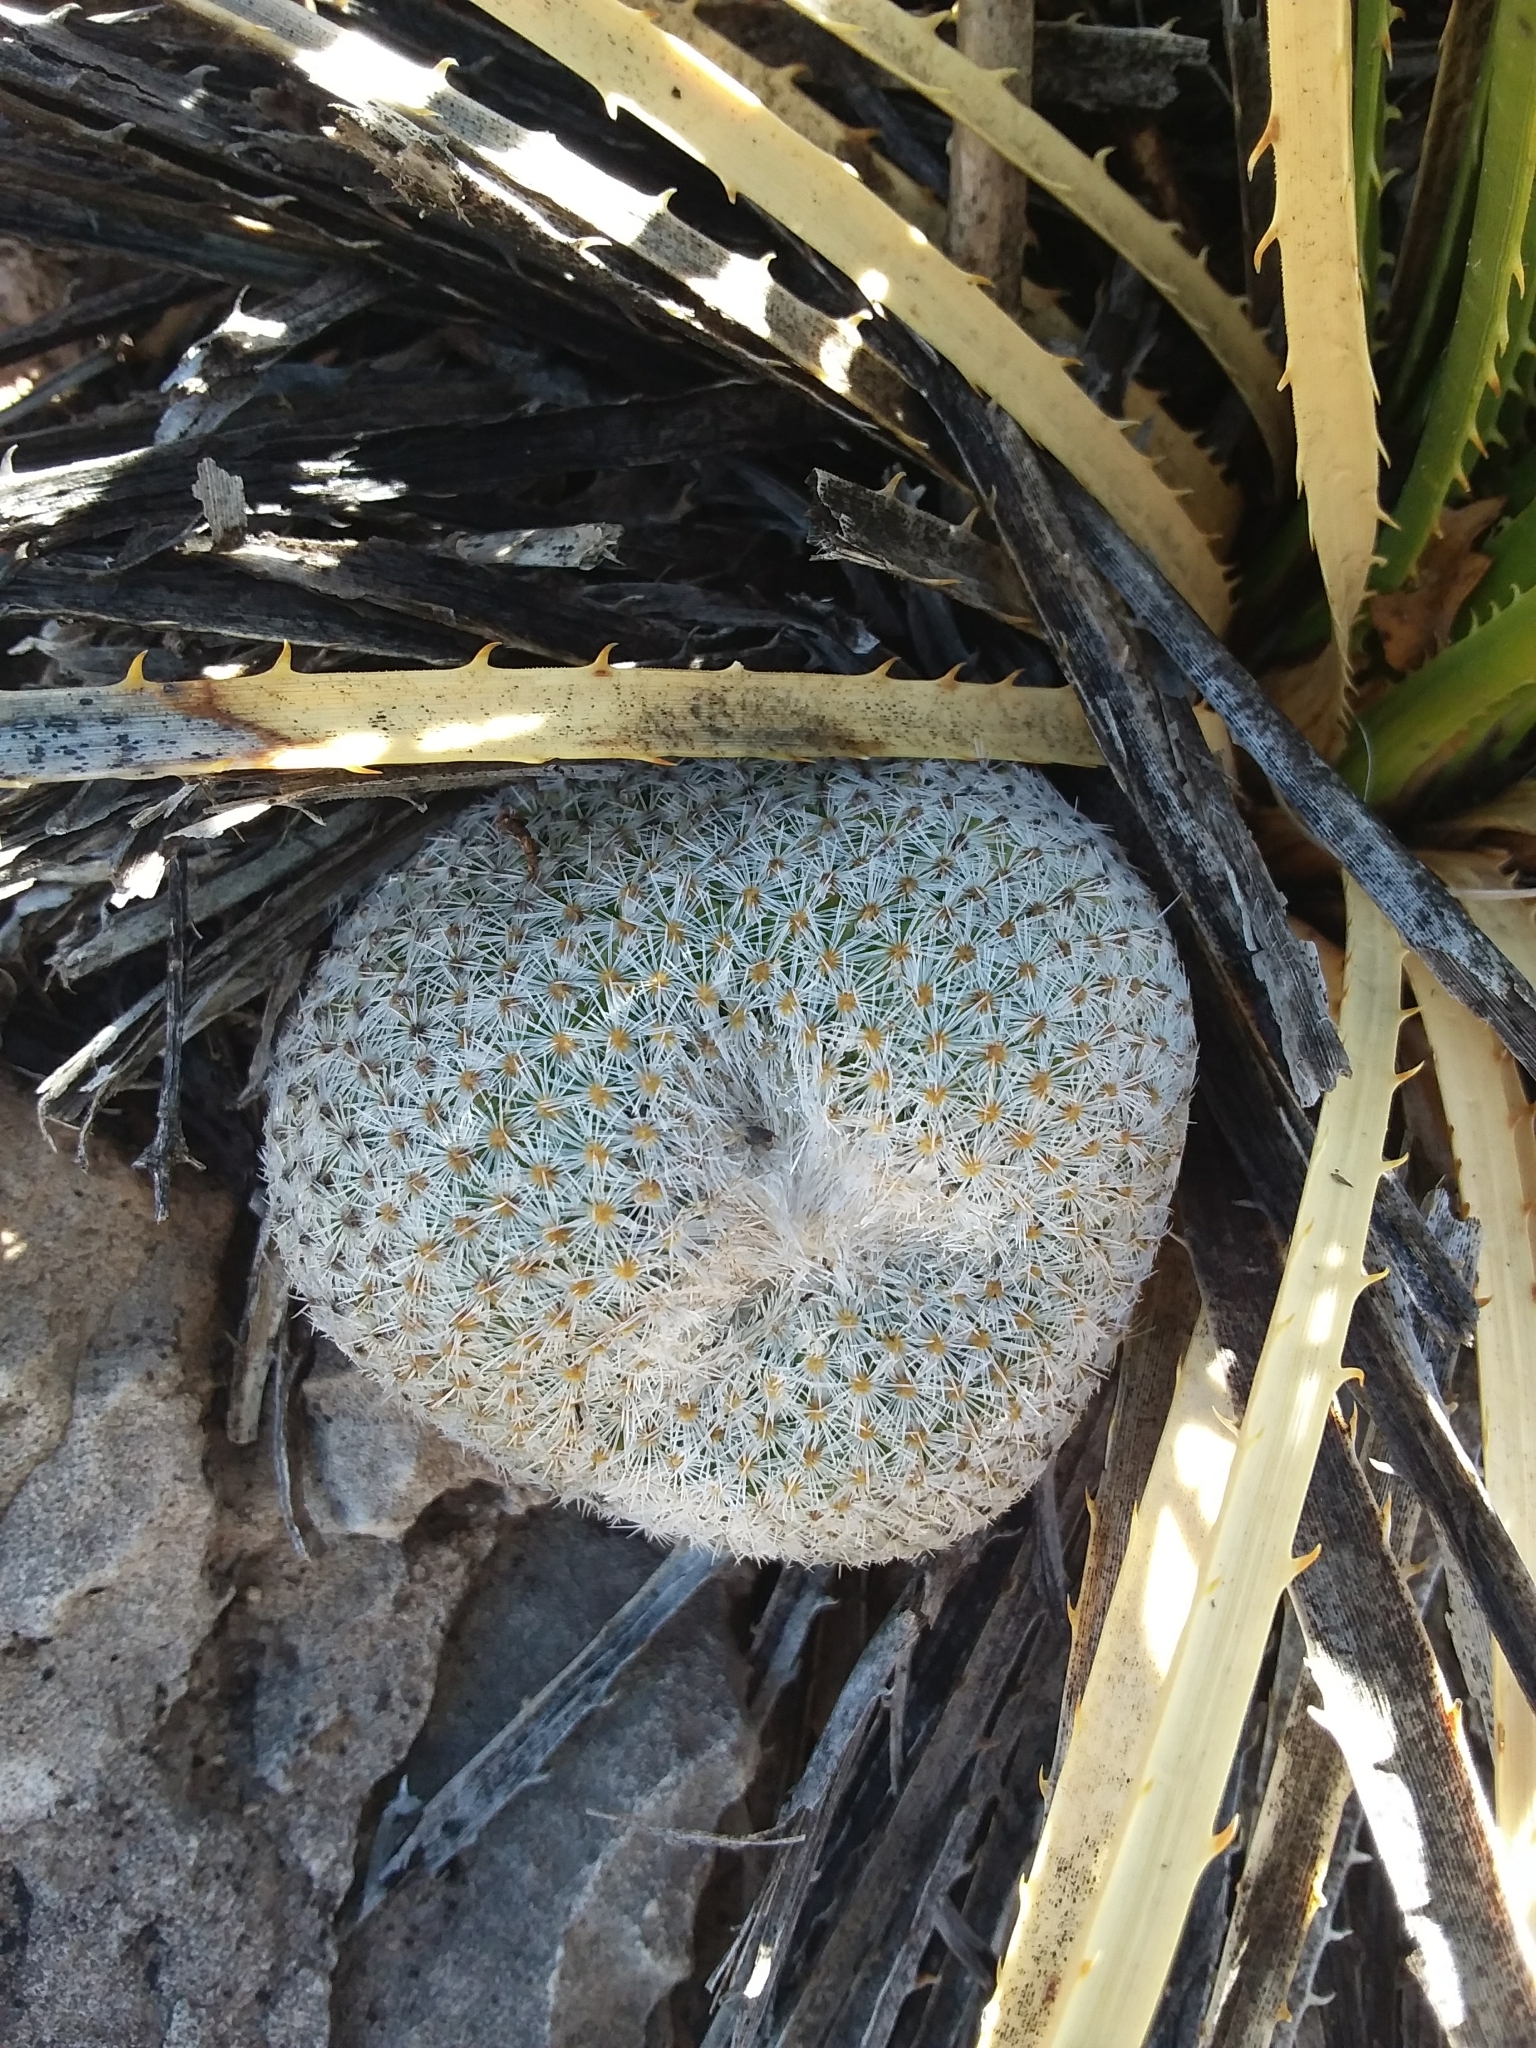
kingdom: Plantae
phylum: Tracheophyta
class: Magnoliopsida
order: Caryophyllales
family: Cactaceae
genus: Epithelantha
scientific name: Epithelantha micromeris
